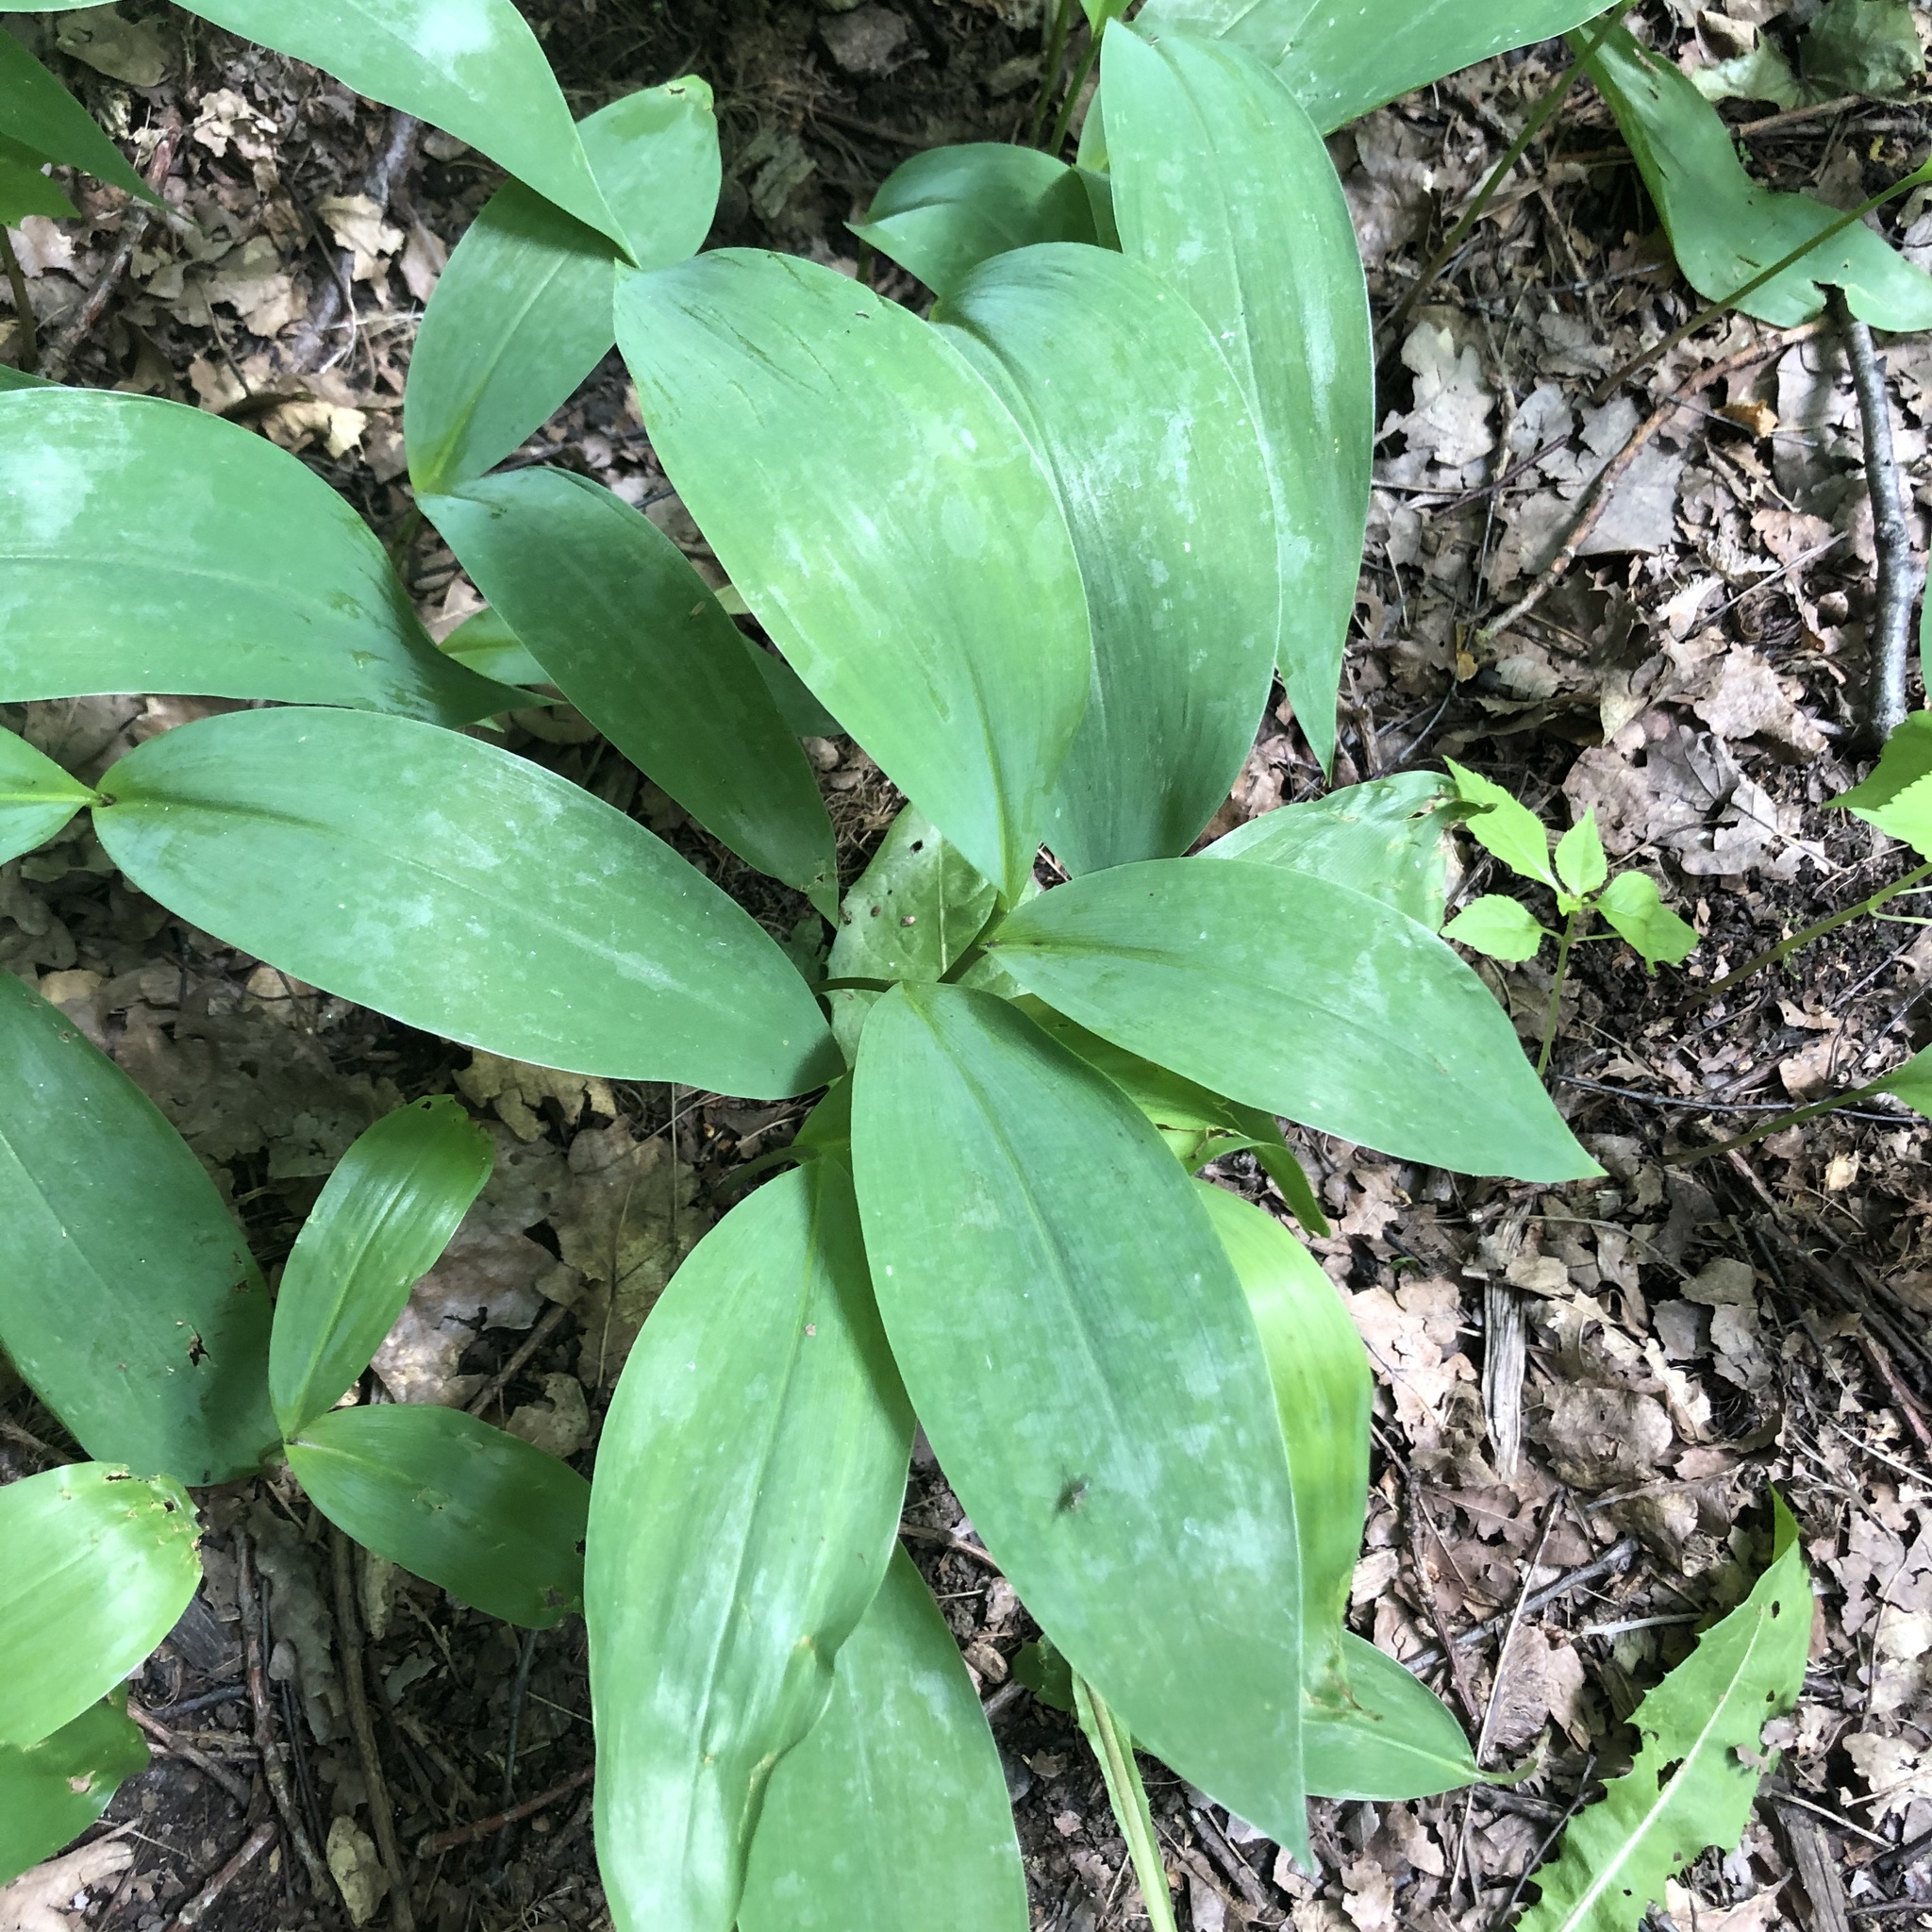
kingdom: Plantae
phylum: Tracheophyta
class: Liliopsida
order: Asparagales
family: Asparagaceae
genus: Convallaria
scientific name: Convallaria majalis
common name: Lily-of-the-valley
